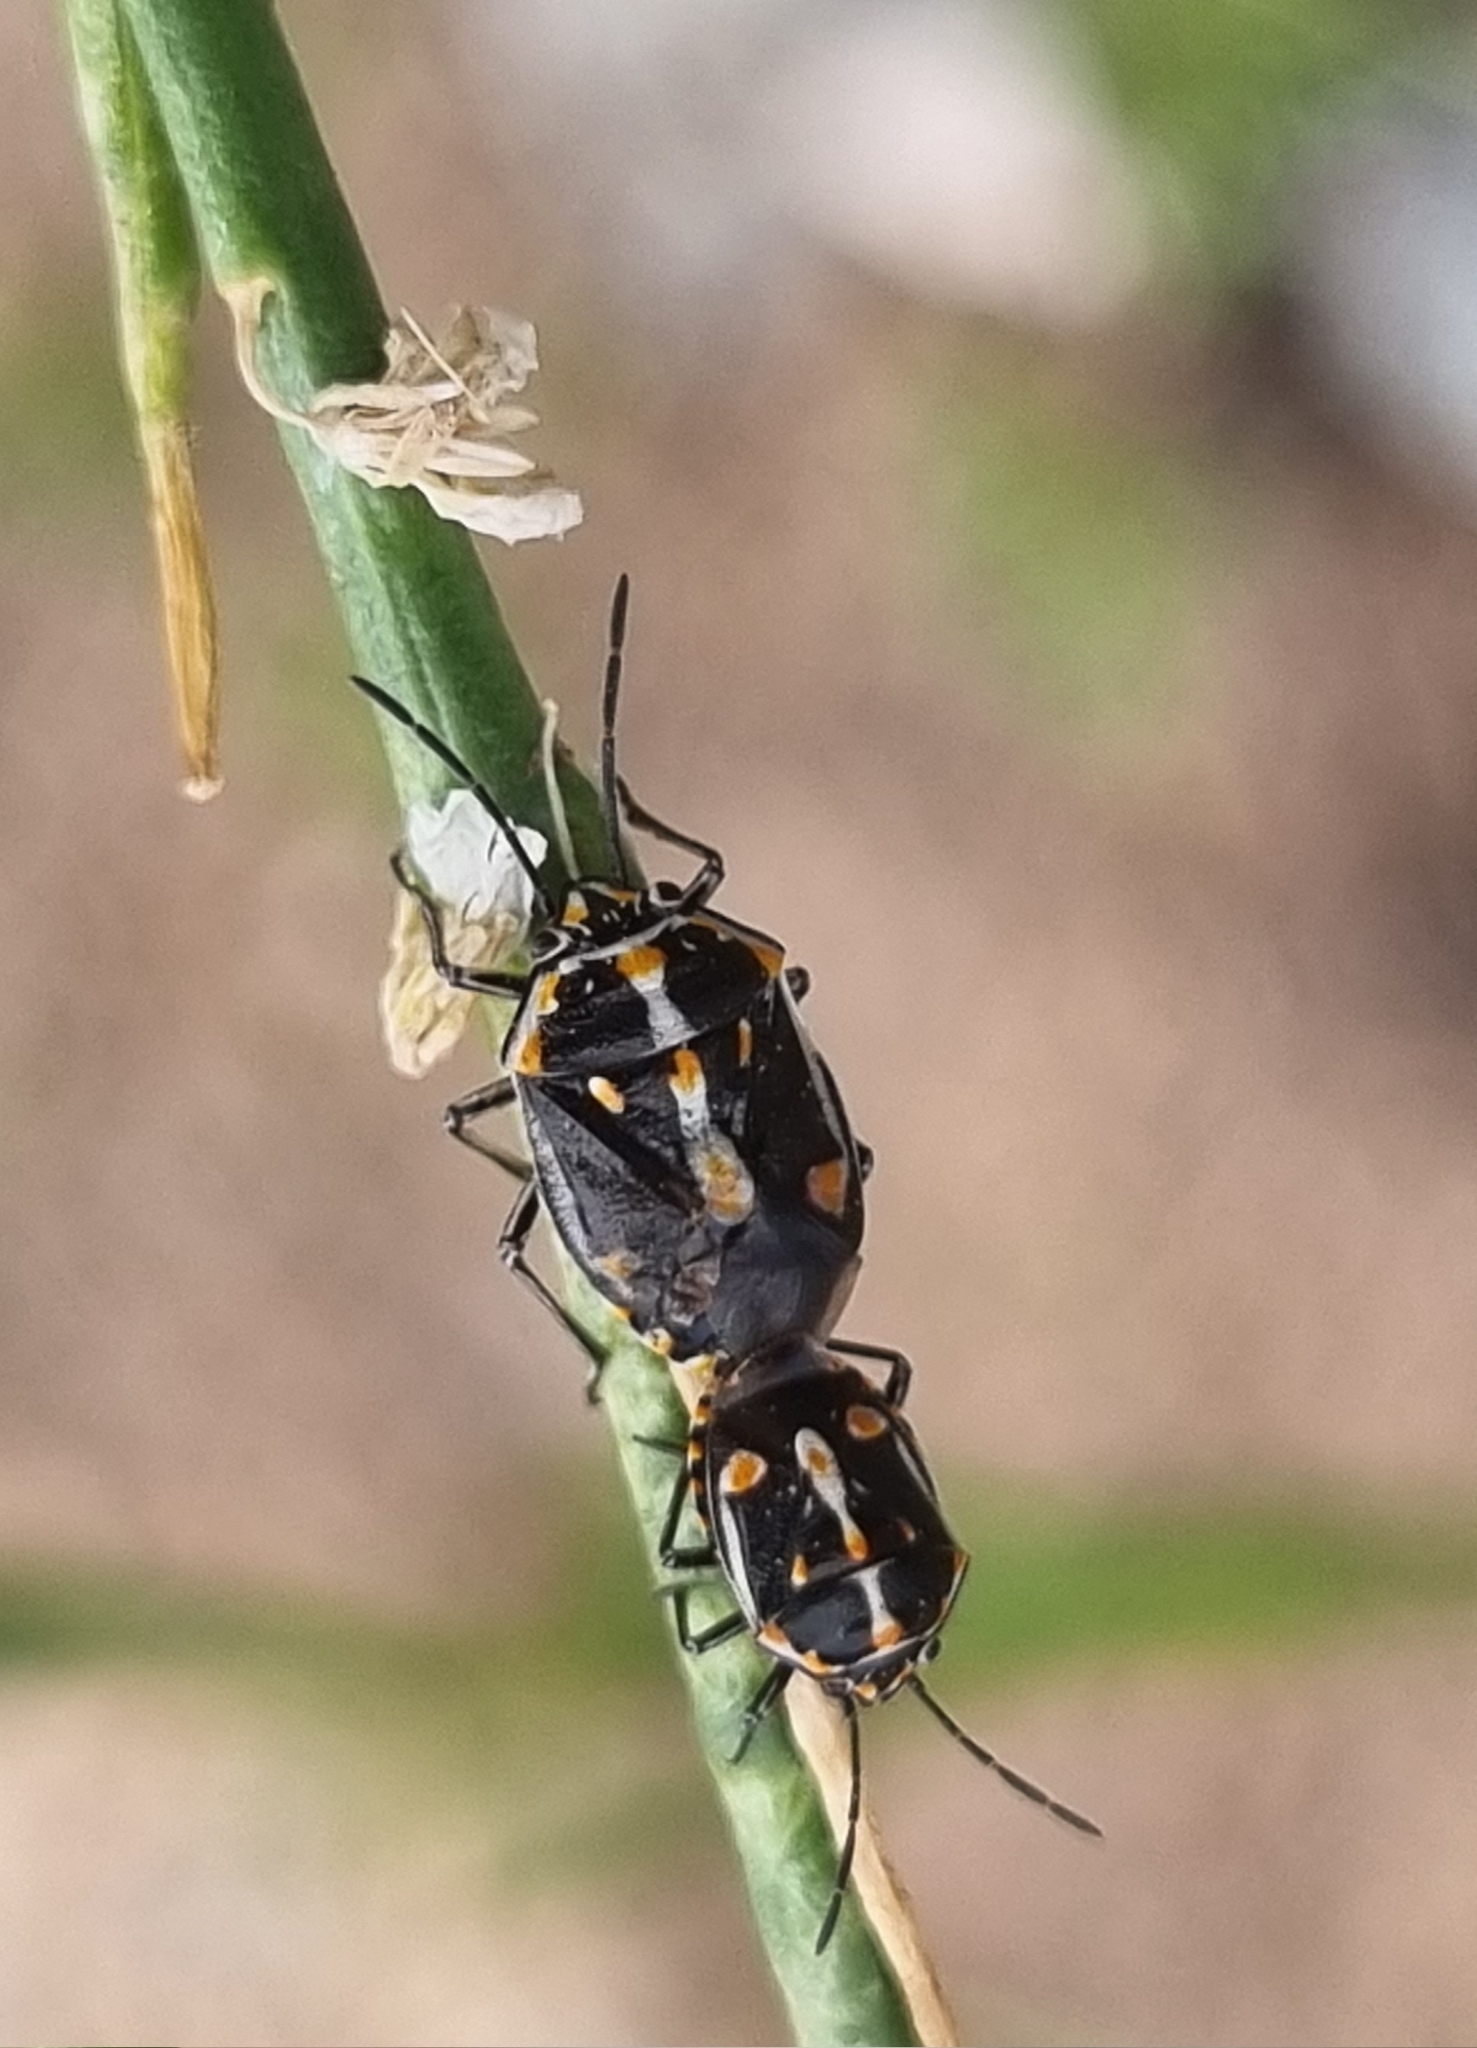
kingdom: Animalia
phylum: Arthropoda
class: Insecta
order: Hemiptera
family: Pentatomidae
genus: Bagrada
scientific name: Bagrada hilaris
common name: Bagrada bug
